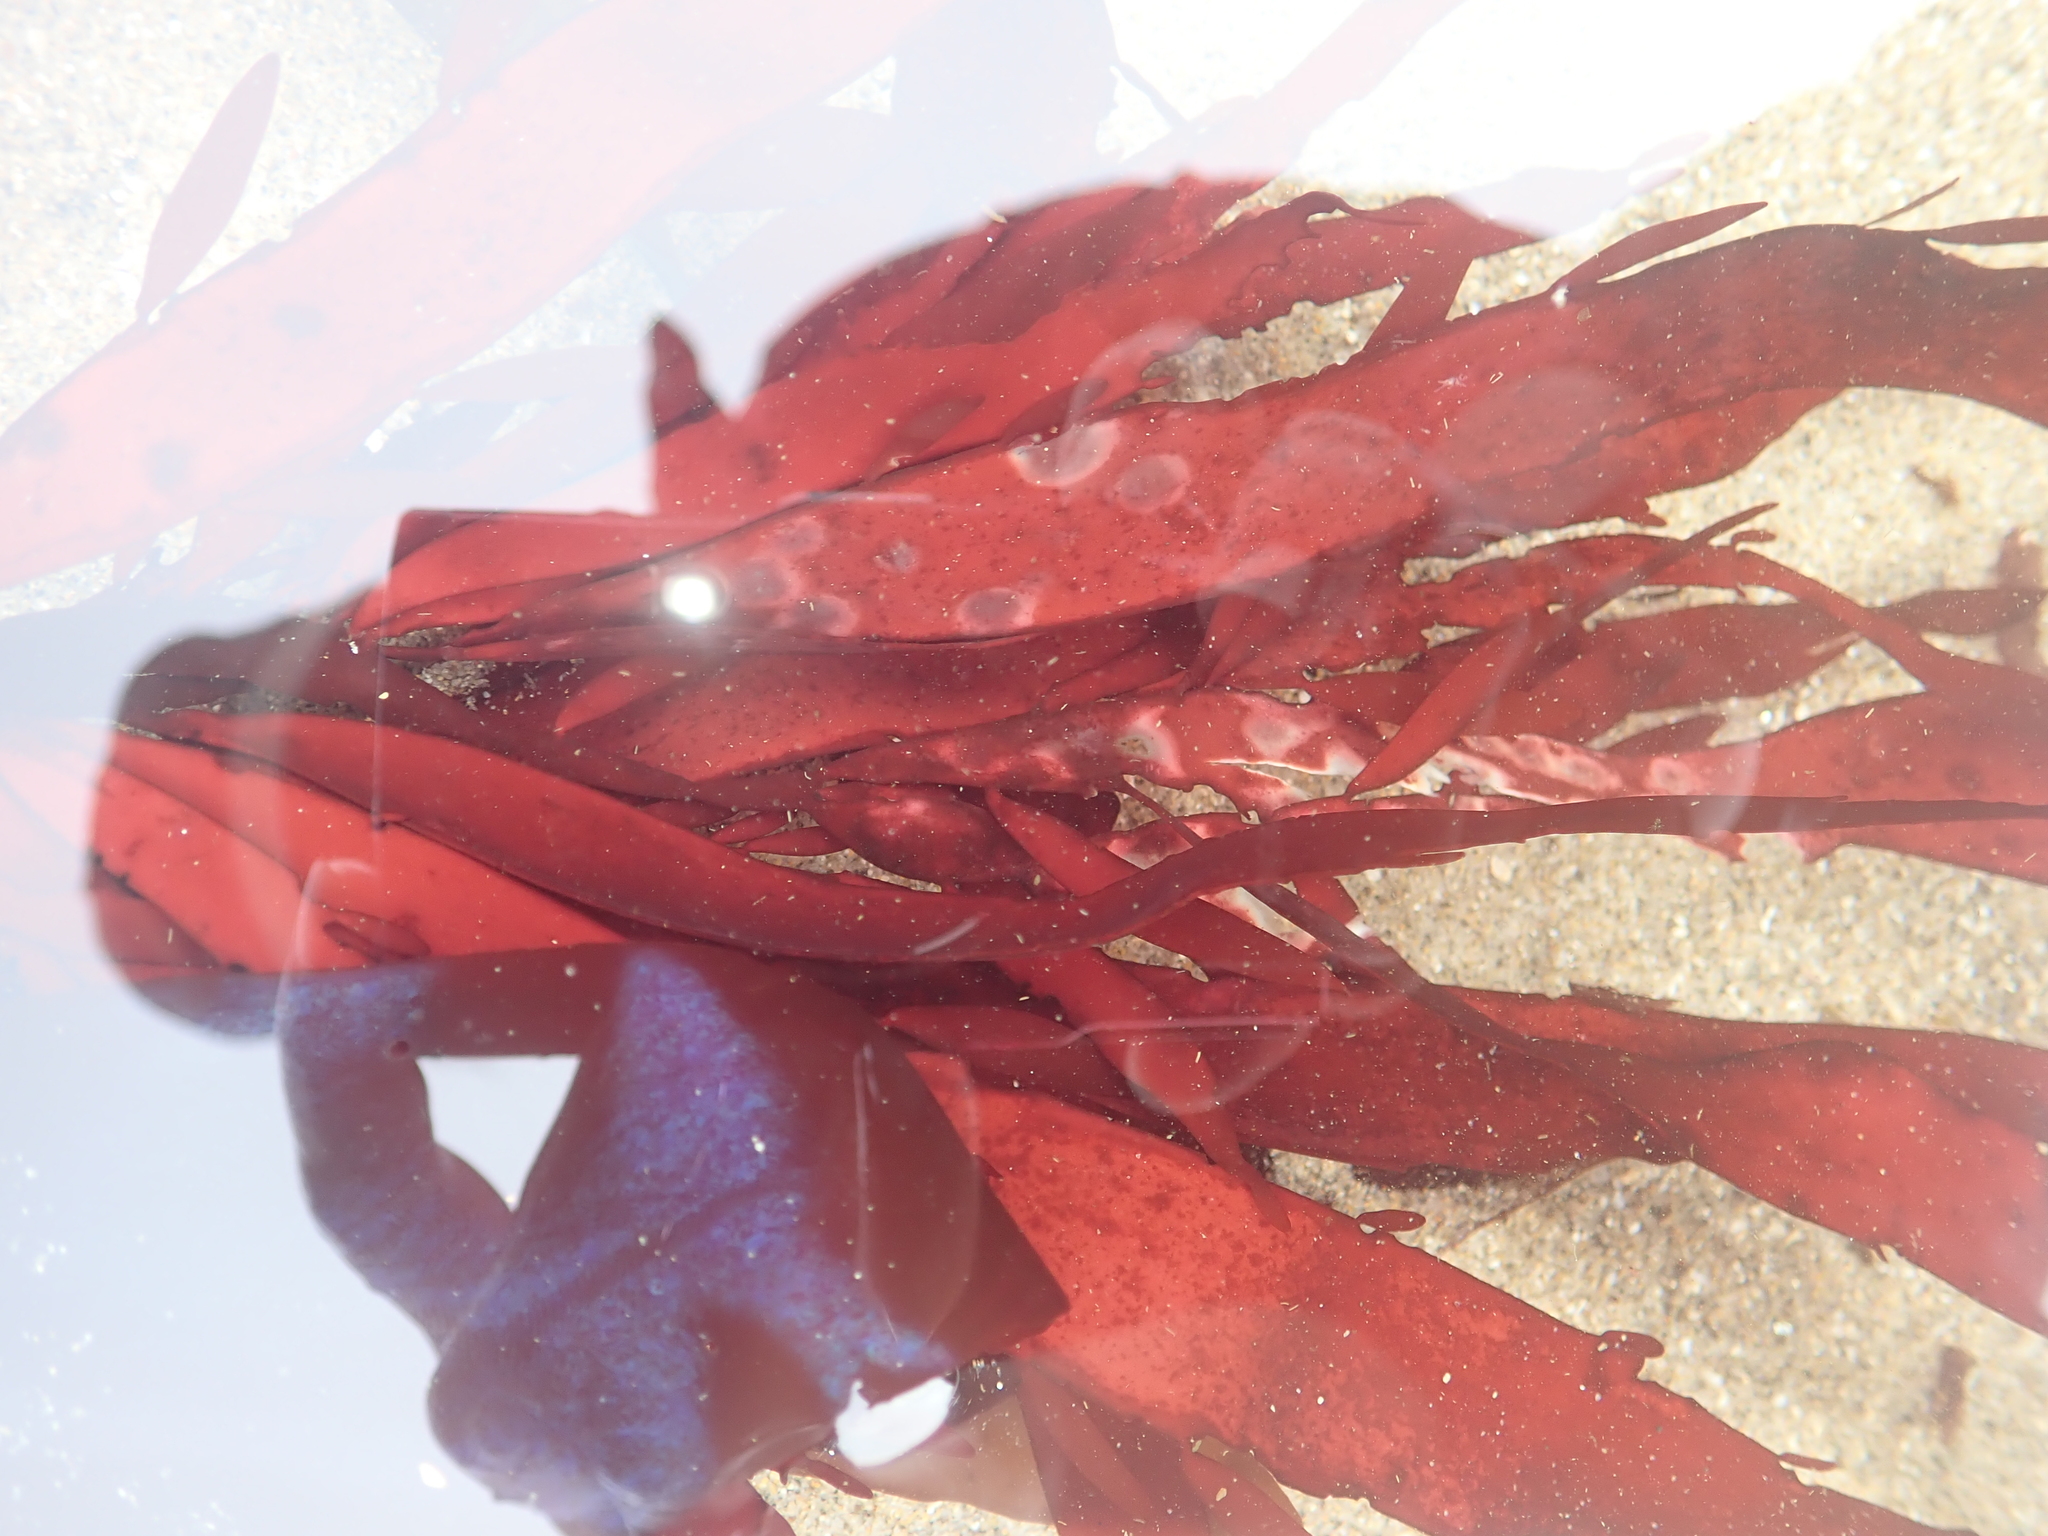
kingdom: Plantae
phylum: Rhodophyta
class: Florideophyceae
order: Halymeniales
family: Halymeniaceae
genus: Grateloupia
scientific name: Grateloupia Prionitis sternbergii
